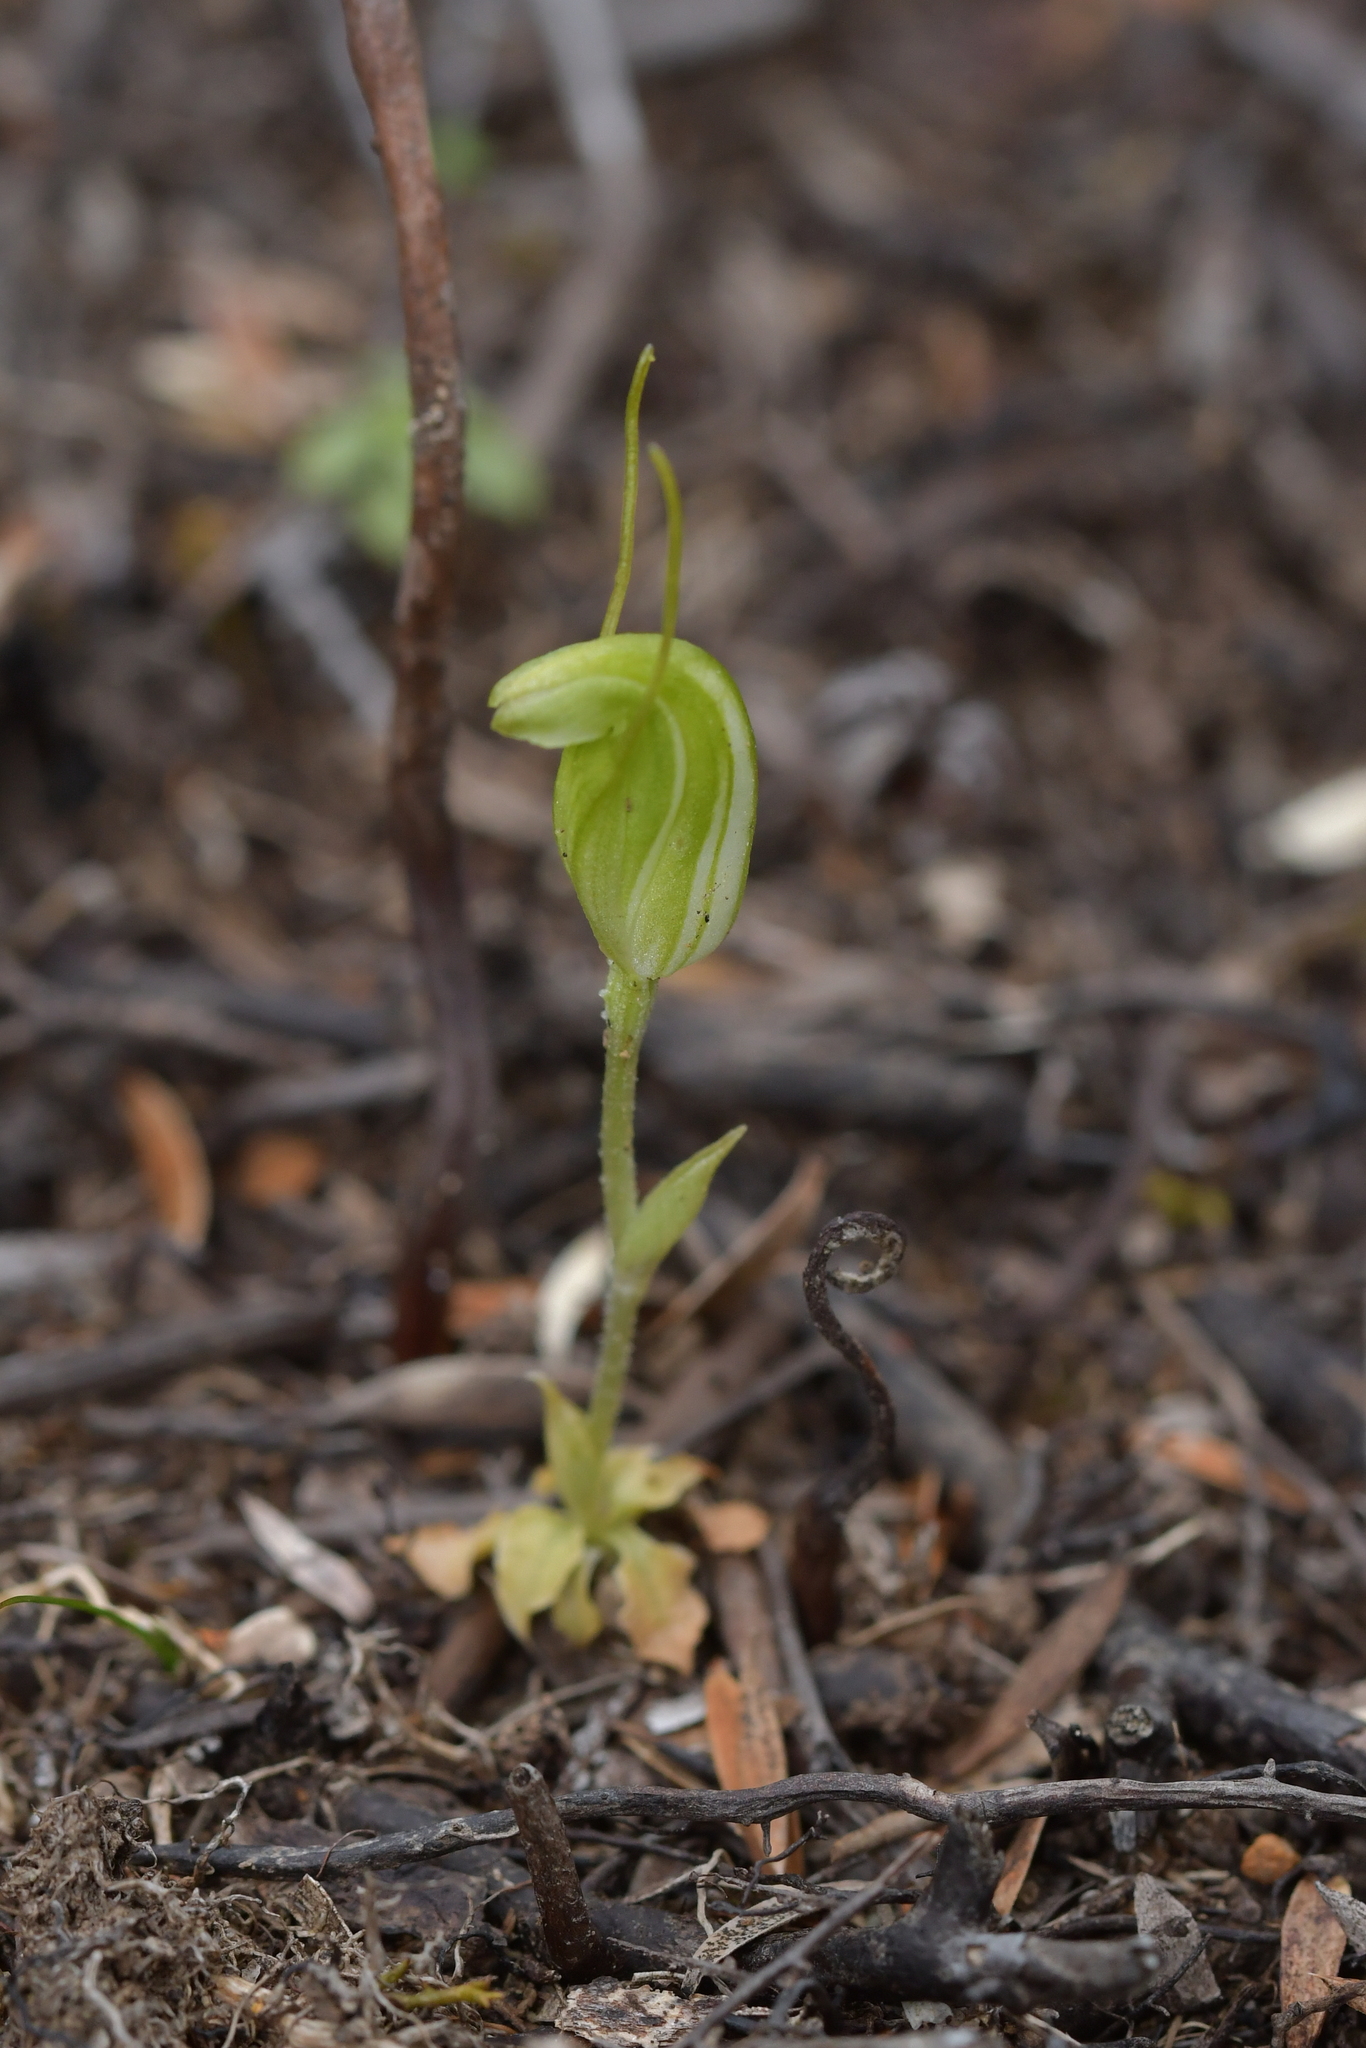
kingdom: Plantae
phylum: Tracheophyta
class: Liliopsida
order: Asparagales
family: Orchidaceae
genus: Pterostylis
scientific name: Pterostylis puberula
